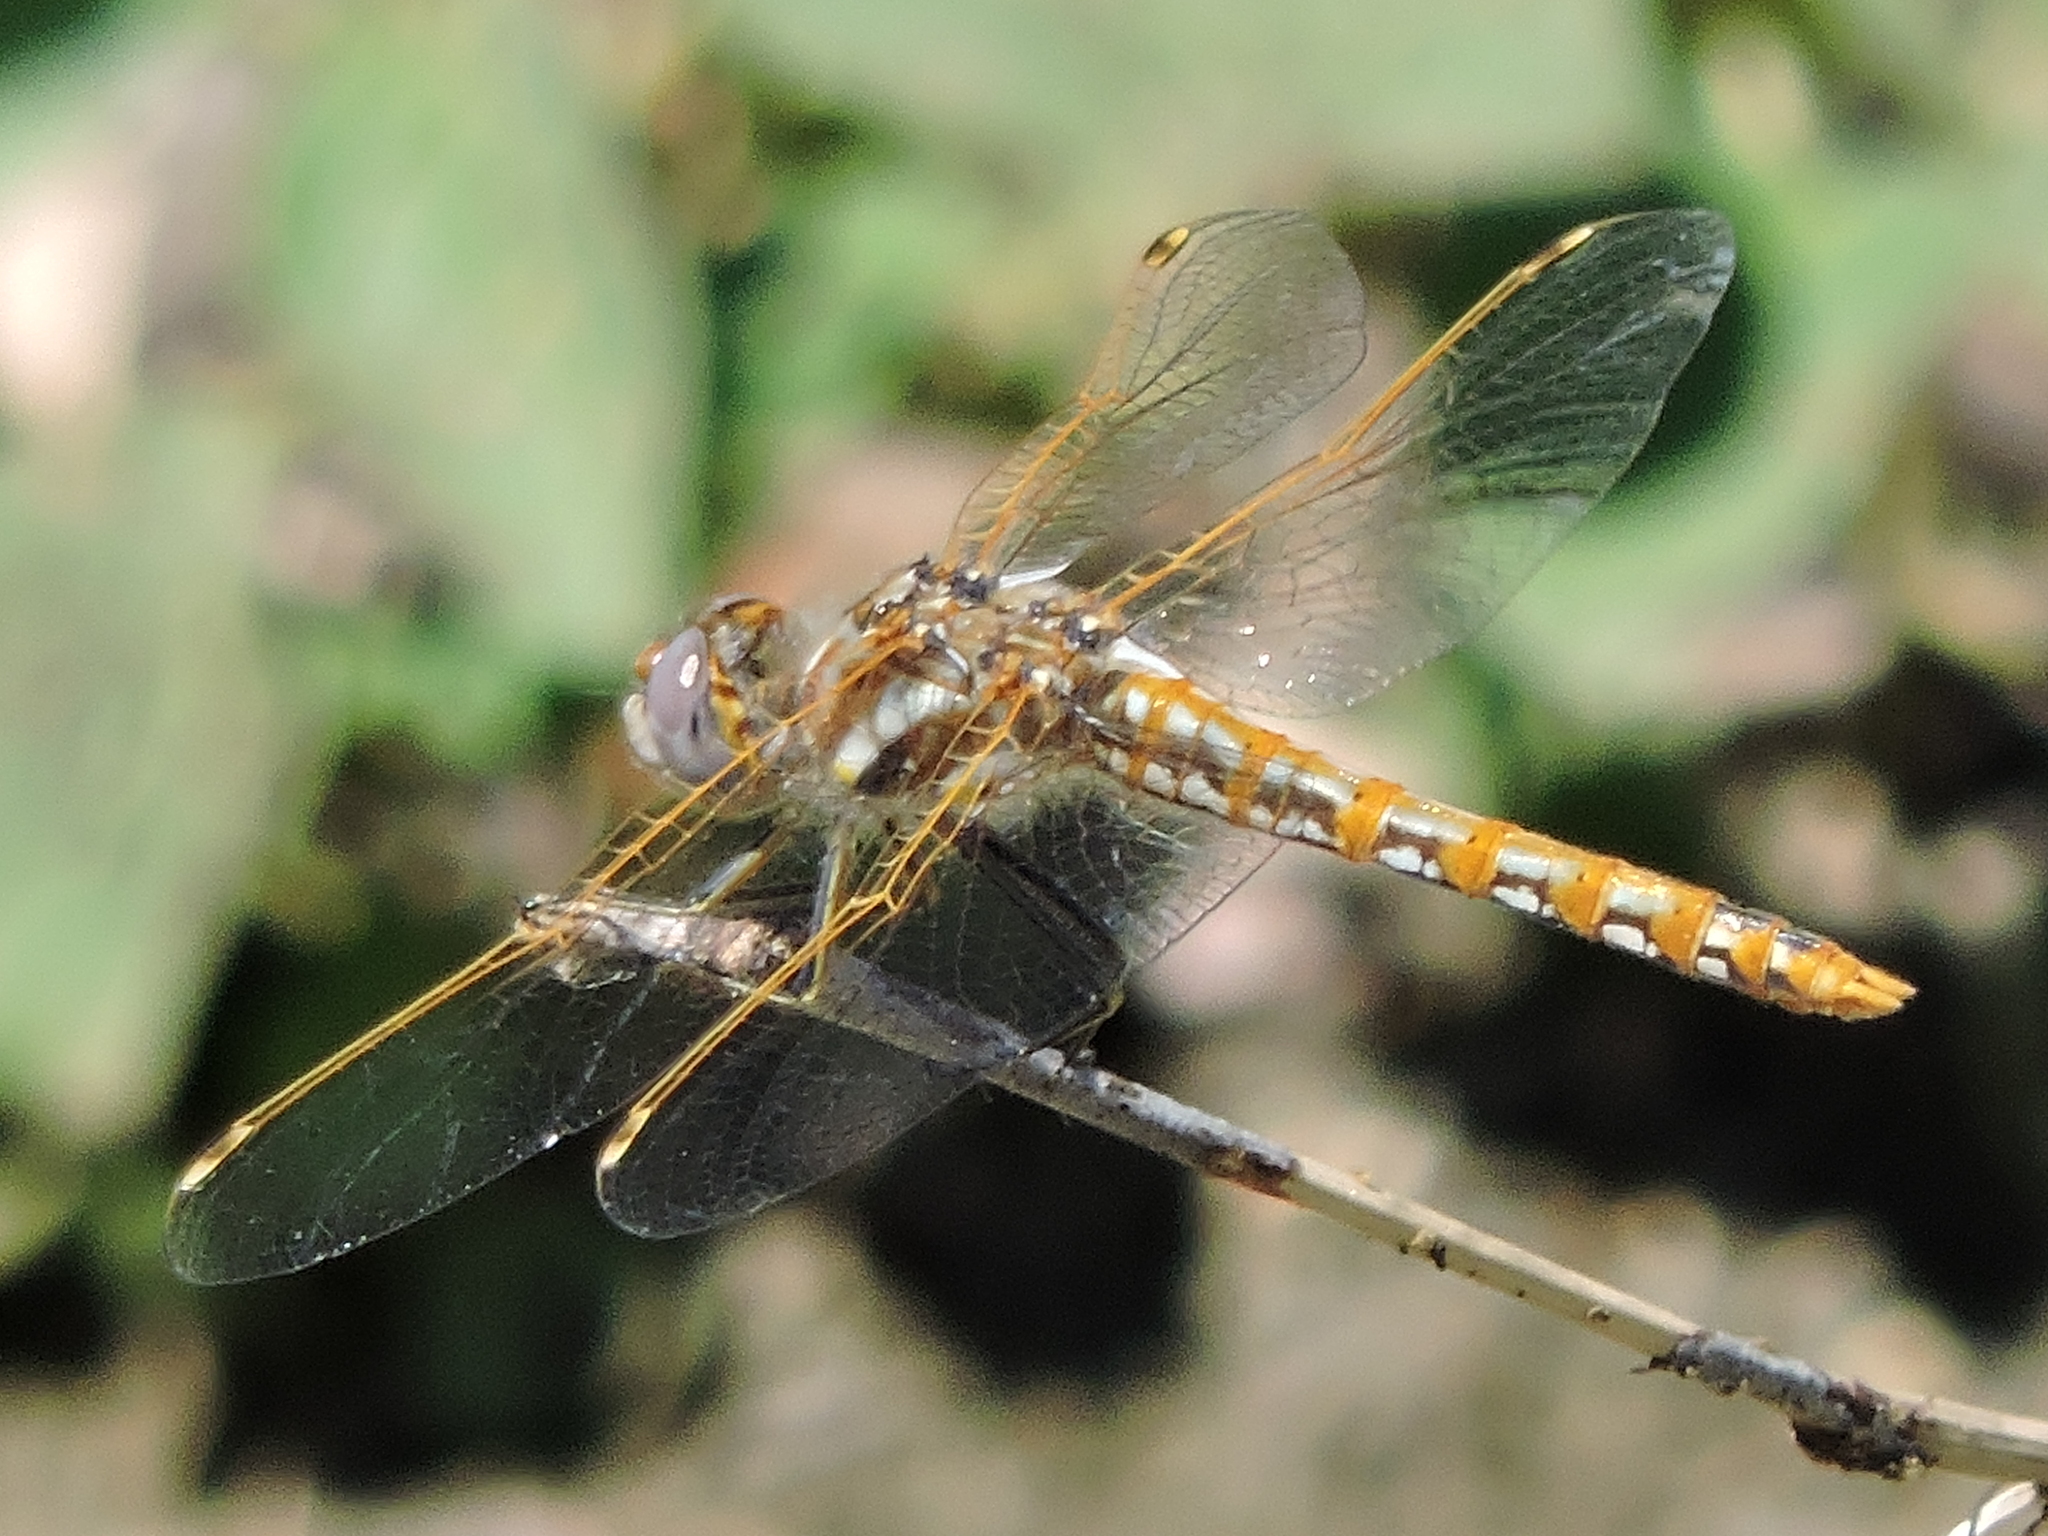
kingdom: Animalia
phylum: Arthropoda
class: Insecta
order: Odonata
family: Libellulidae
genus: Sympetrum
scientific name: Sympetrum corruptum
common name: Variegated meadowhawk
